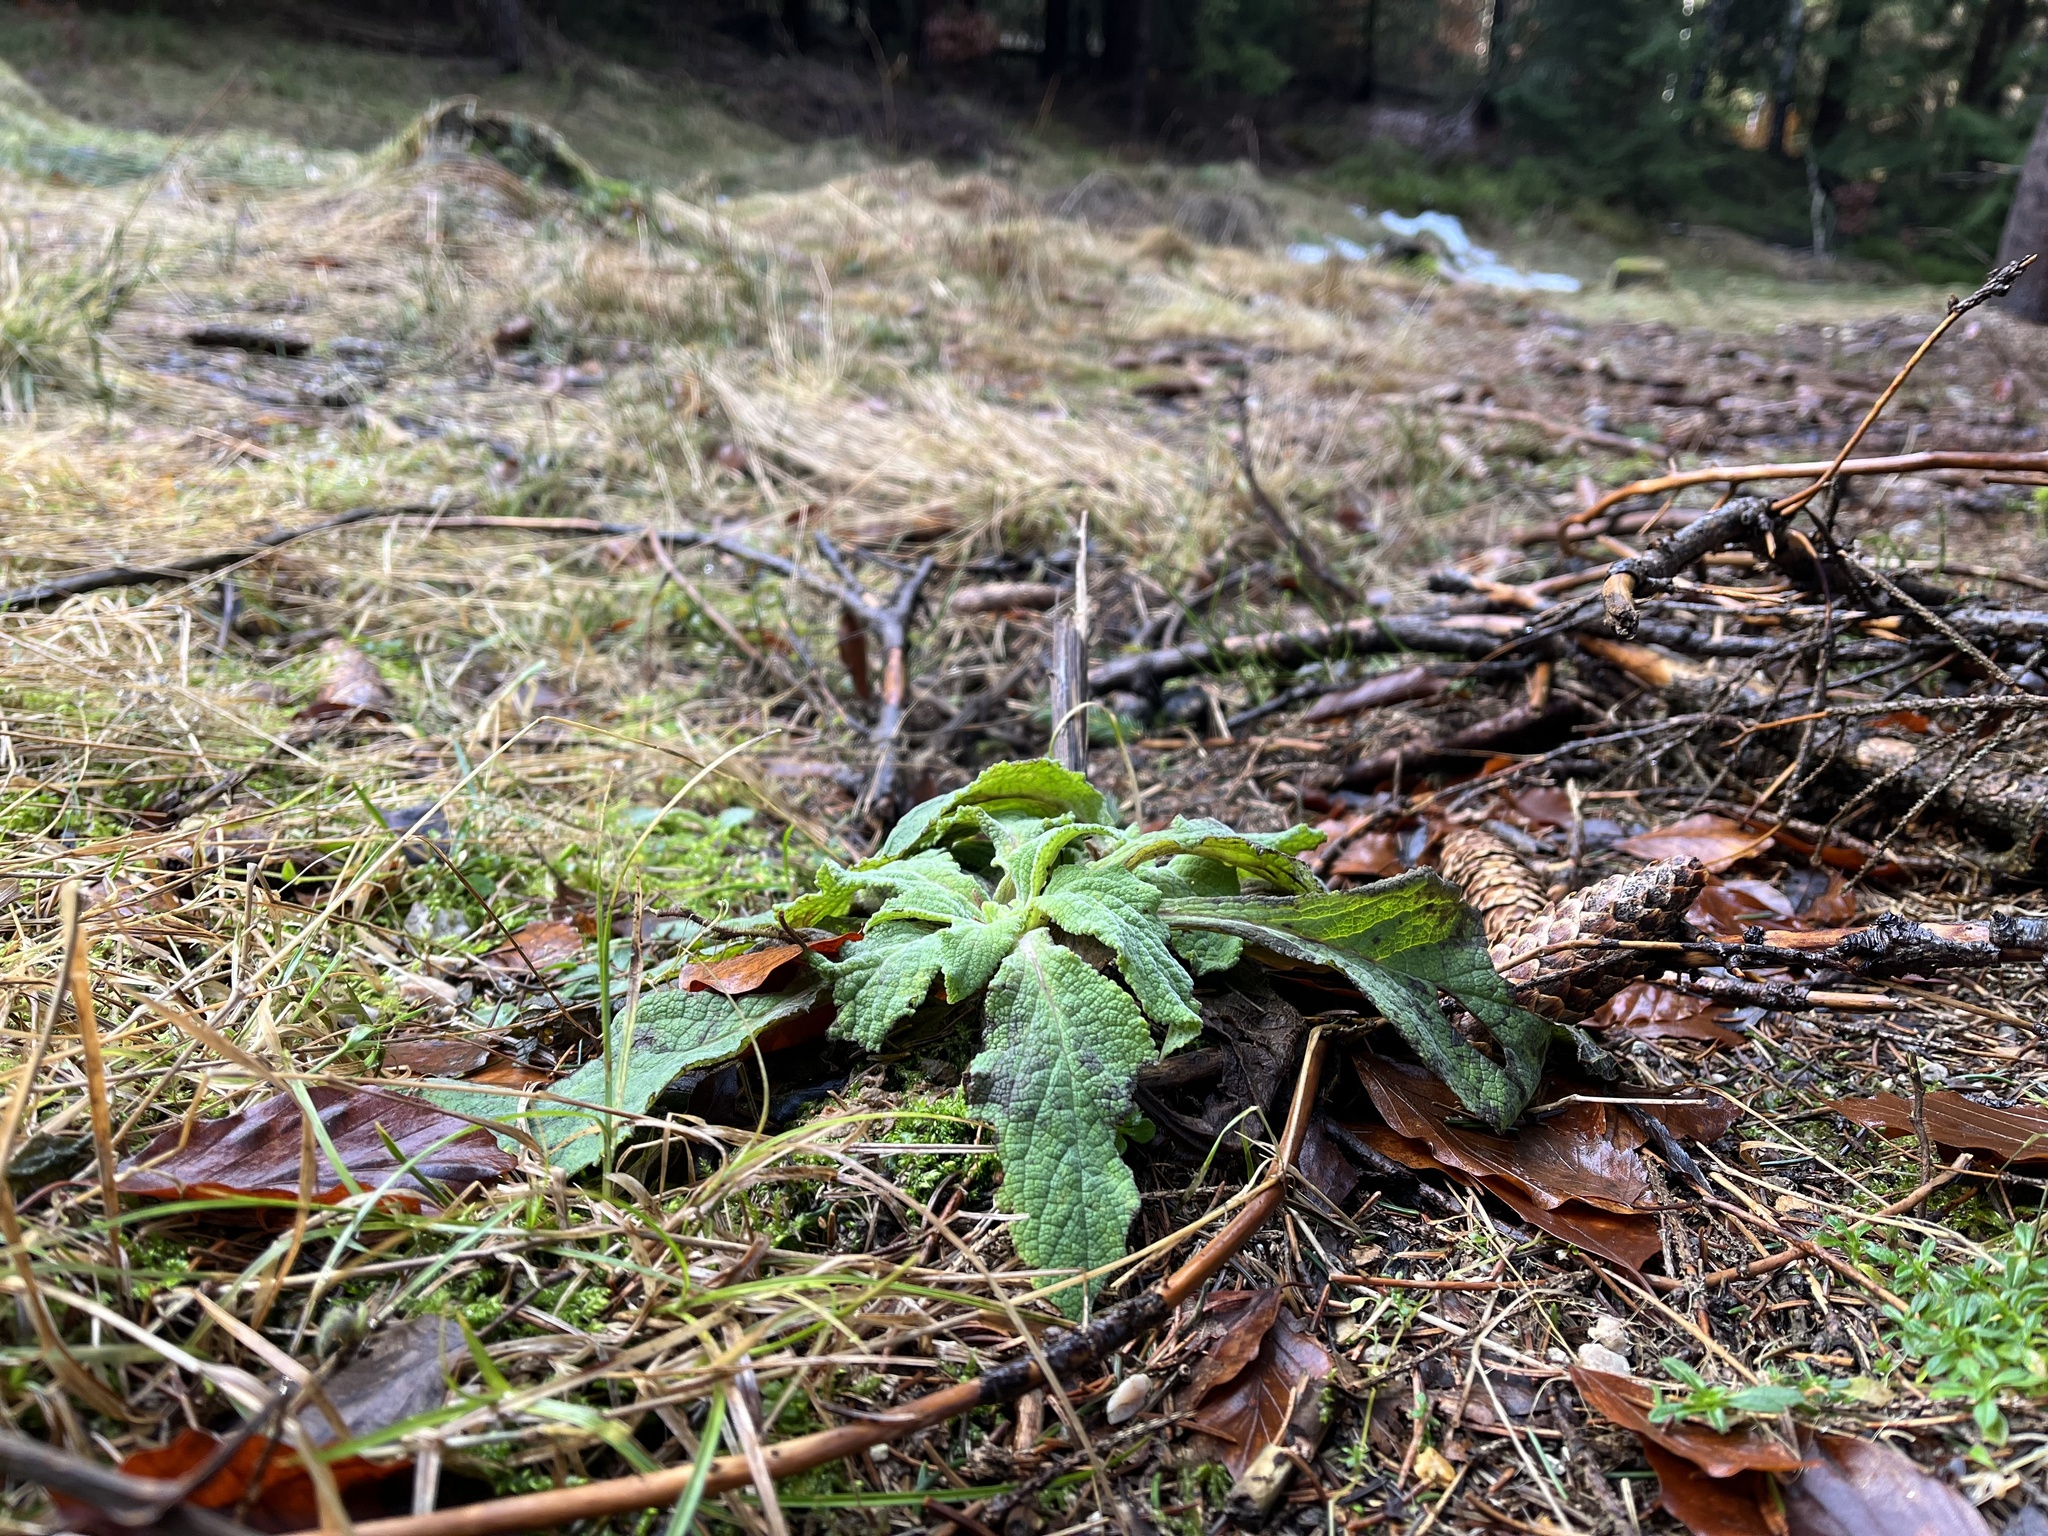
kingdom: Plantae
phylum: Tracheophyta
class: Magnoliopsida
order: Lamiales
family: Plantaginaceae
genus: Digitalis
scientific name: Digitalis purpurea
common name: Foxglove
